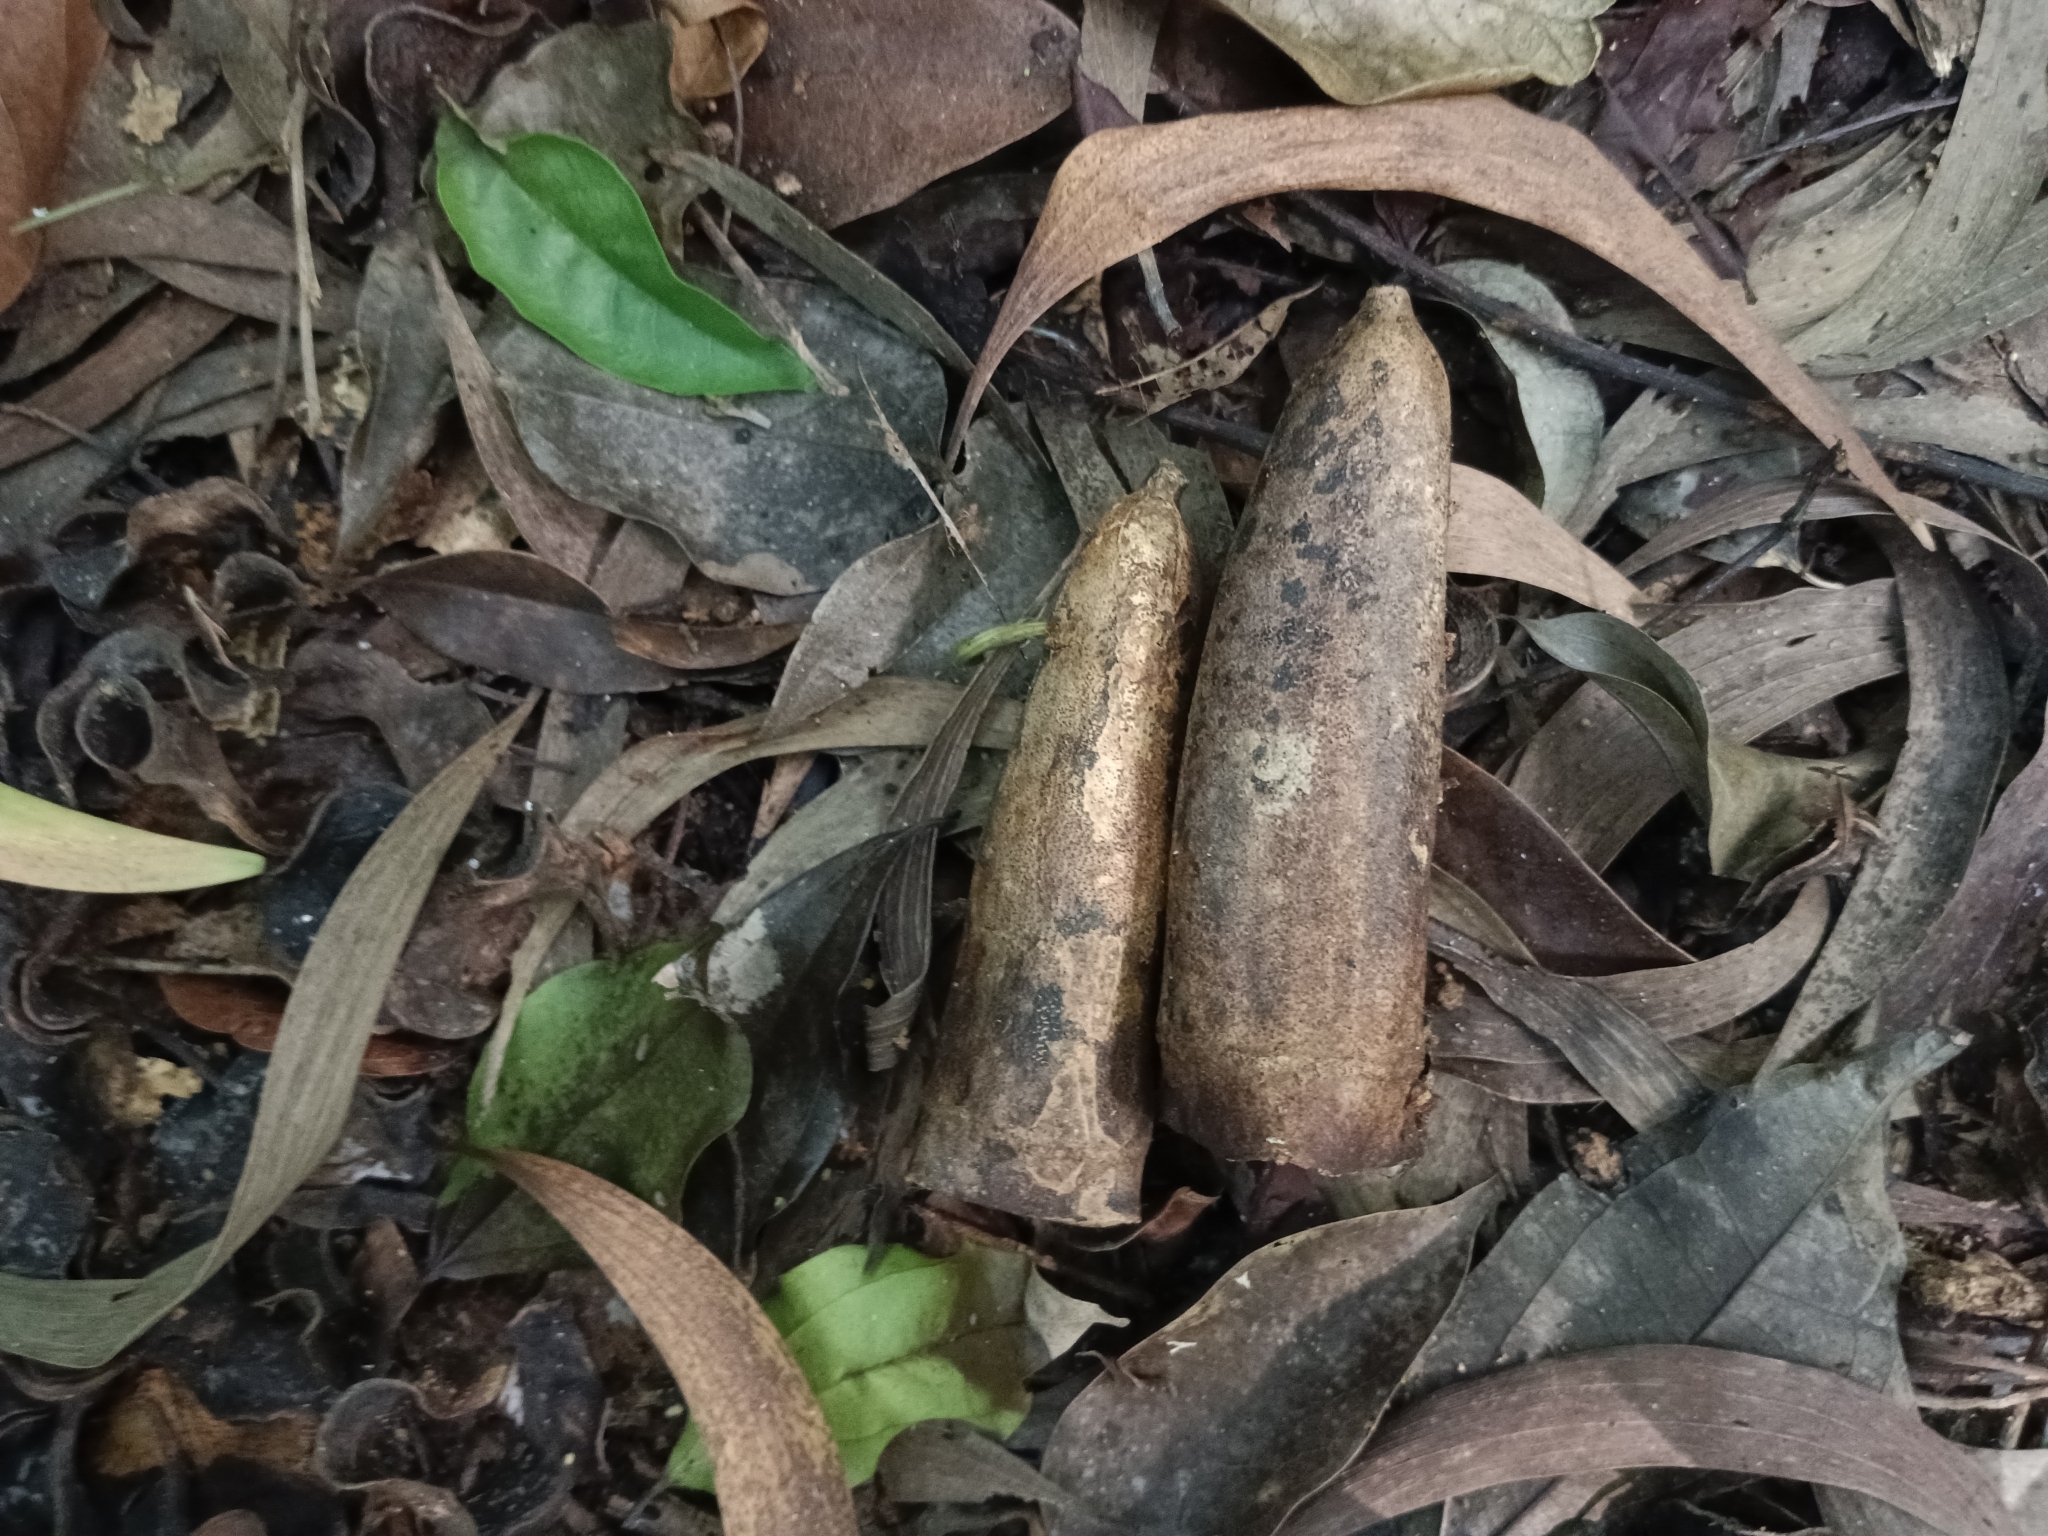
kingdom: Plantae
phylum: Tracheophyta
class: Magnoliopsida
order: Cucurbitales
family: Cucurbitaceae
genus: Zanonia
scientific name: Zanonia indica
